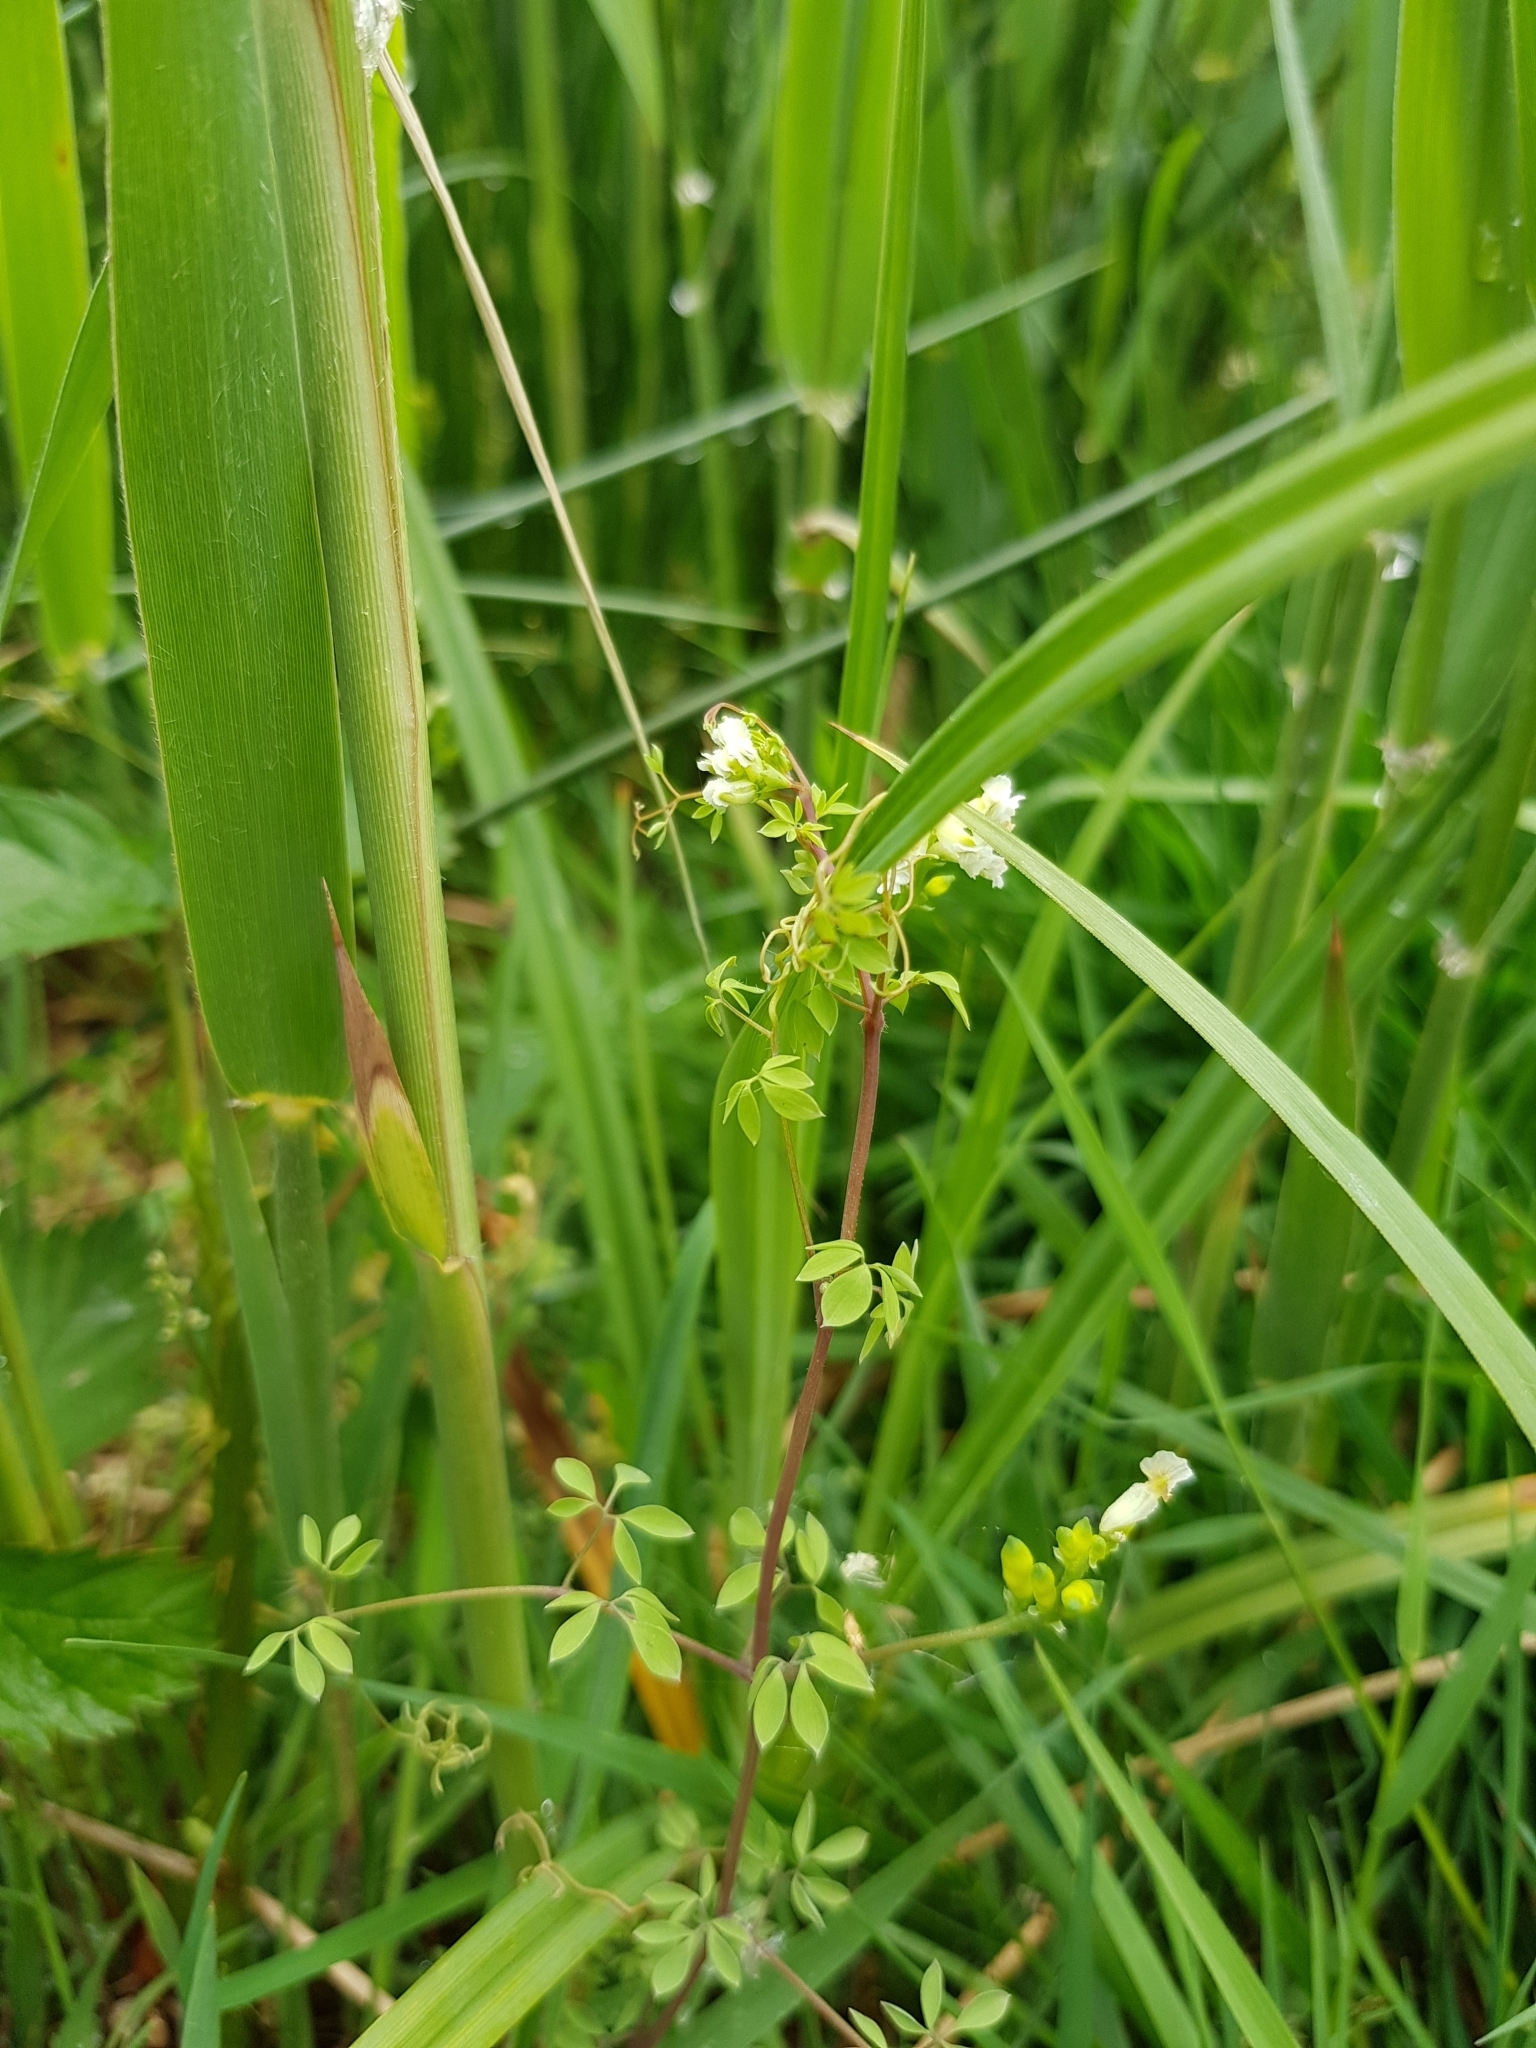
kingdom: Plantae
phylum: Tracheophyta
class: Magnoliopsida
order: Ranunculales
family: Papaveraceae
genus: Ceratocapnos
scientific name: Ceratocapnos claviculata
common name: Climbing corydalis
